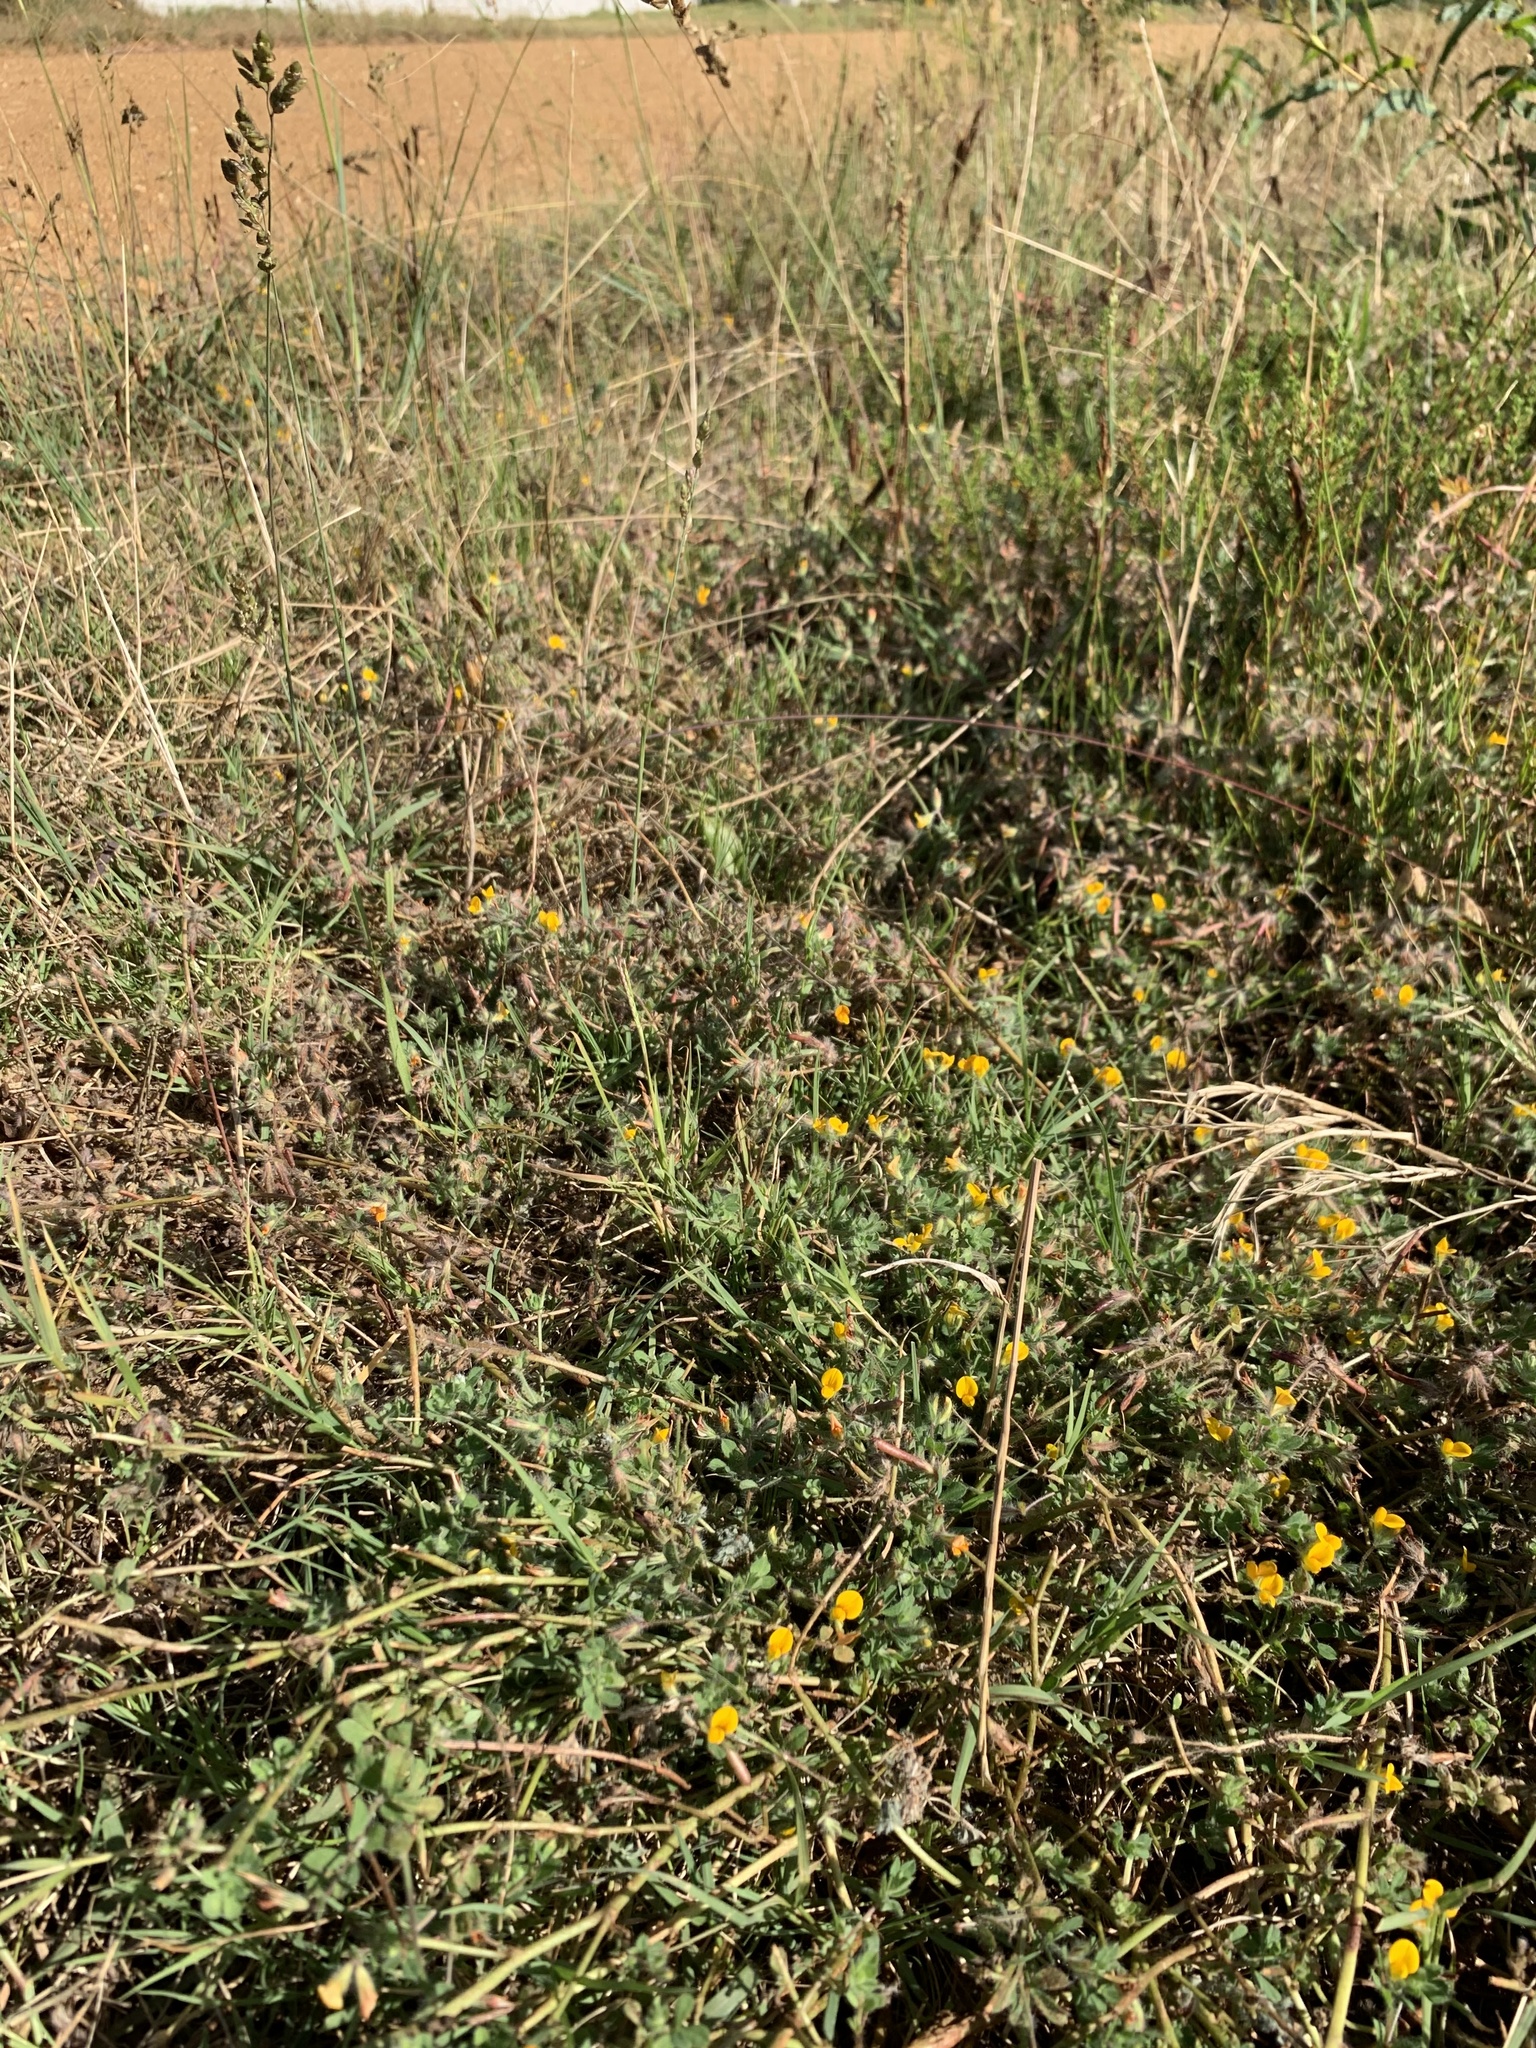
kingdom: Plantae
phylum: Tracheophyta
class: Magnoliopsida
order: Fabales
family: Fabaceae
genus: Lotus
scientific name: Lotus subbiflorus
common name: Hairy bird's-foot trefoil
